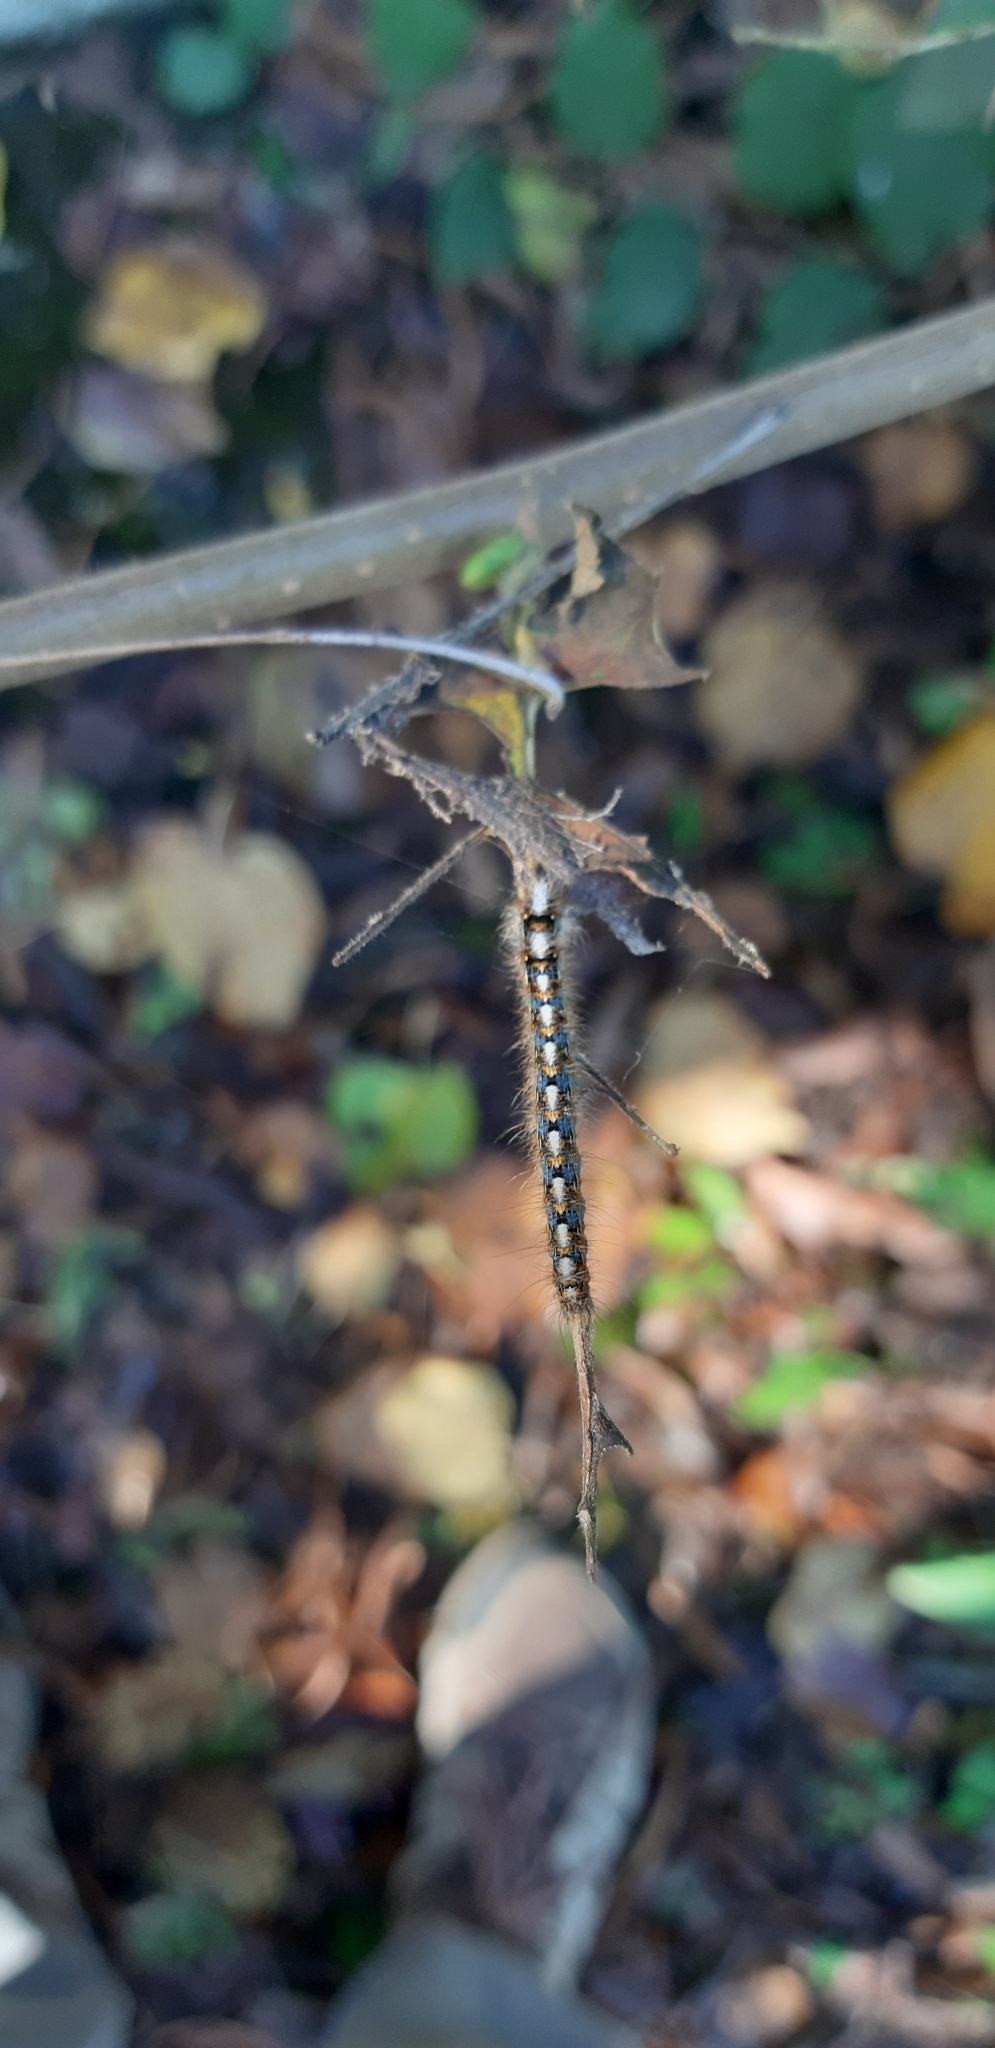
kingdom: Animalia
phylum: Arthropoda
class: Insecta
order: Lepidoptera
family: Lasiocampidae
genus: Lasiocampa
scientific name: Lasiocampa quercus
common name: Oak eggar
